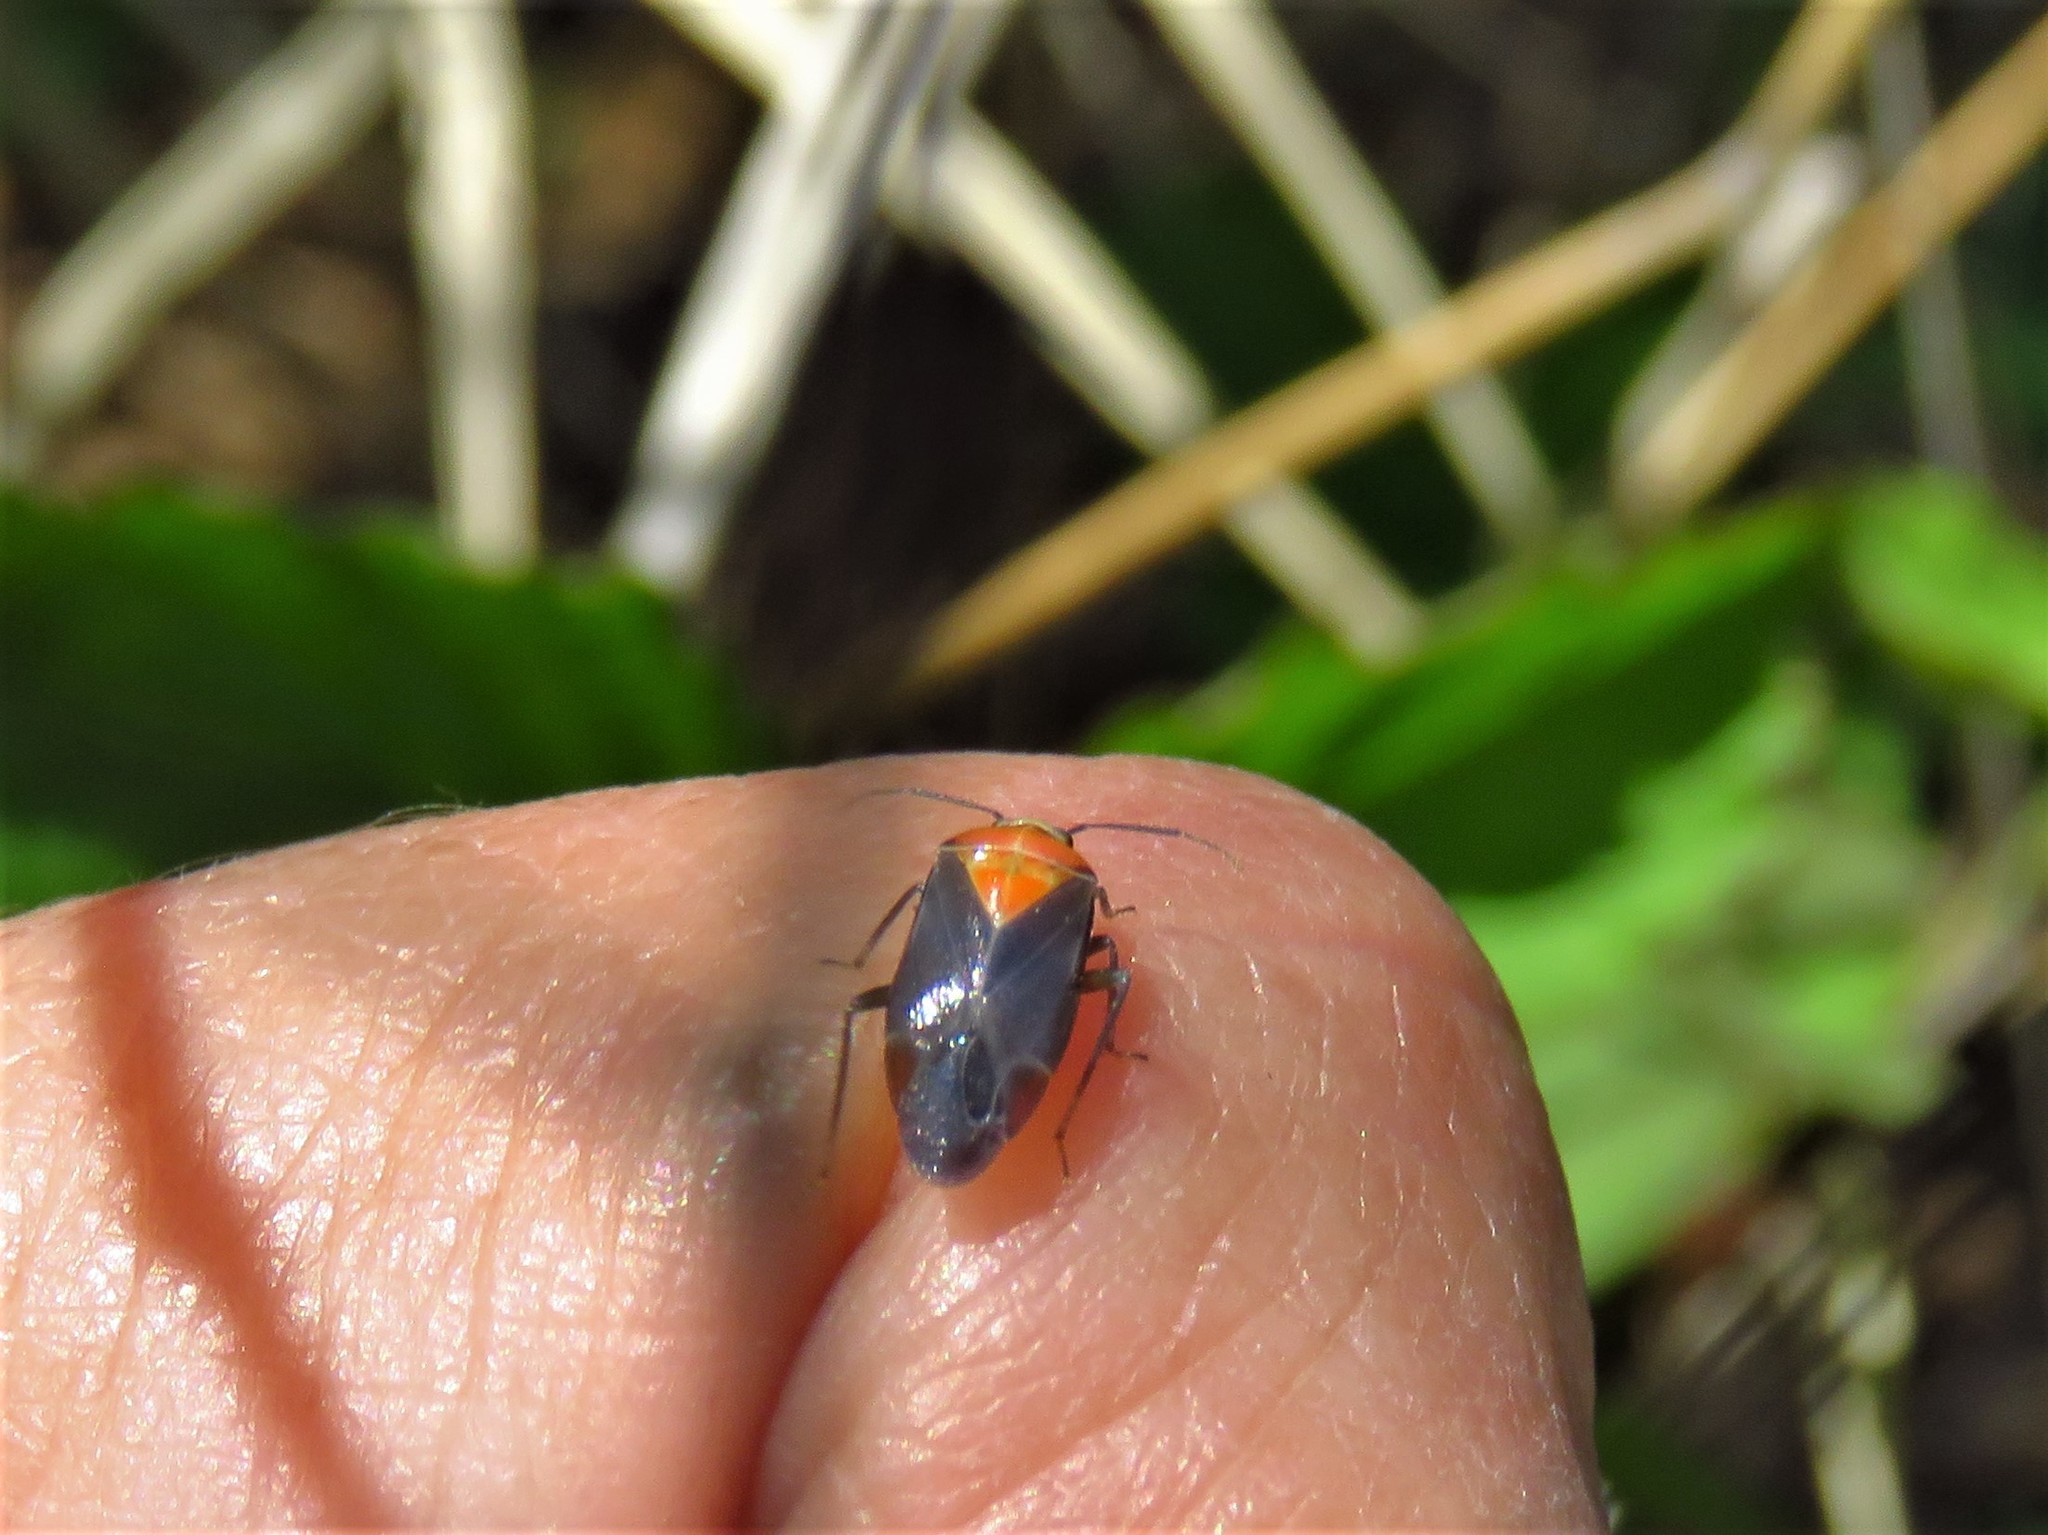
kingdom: Animalia
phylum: Arthropoda
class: Insecta
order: Hemiptera
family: Miridae
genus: Neocapsus
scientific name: Neocapsus cuneatus
